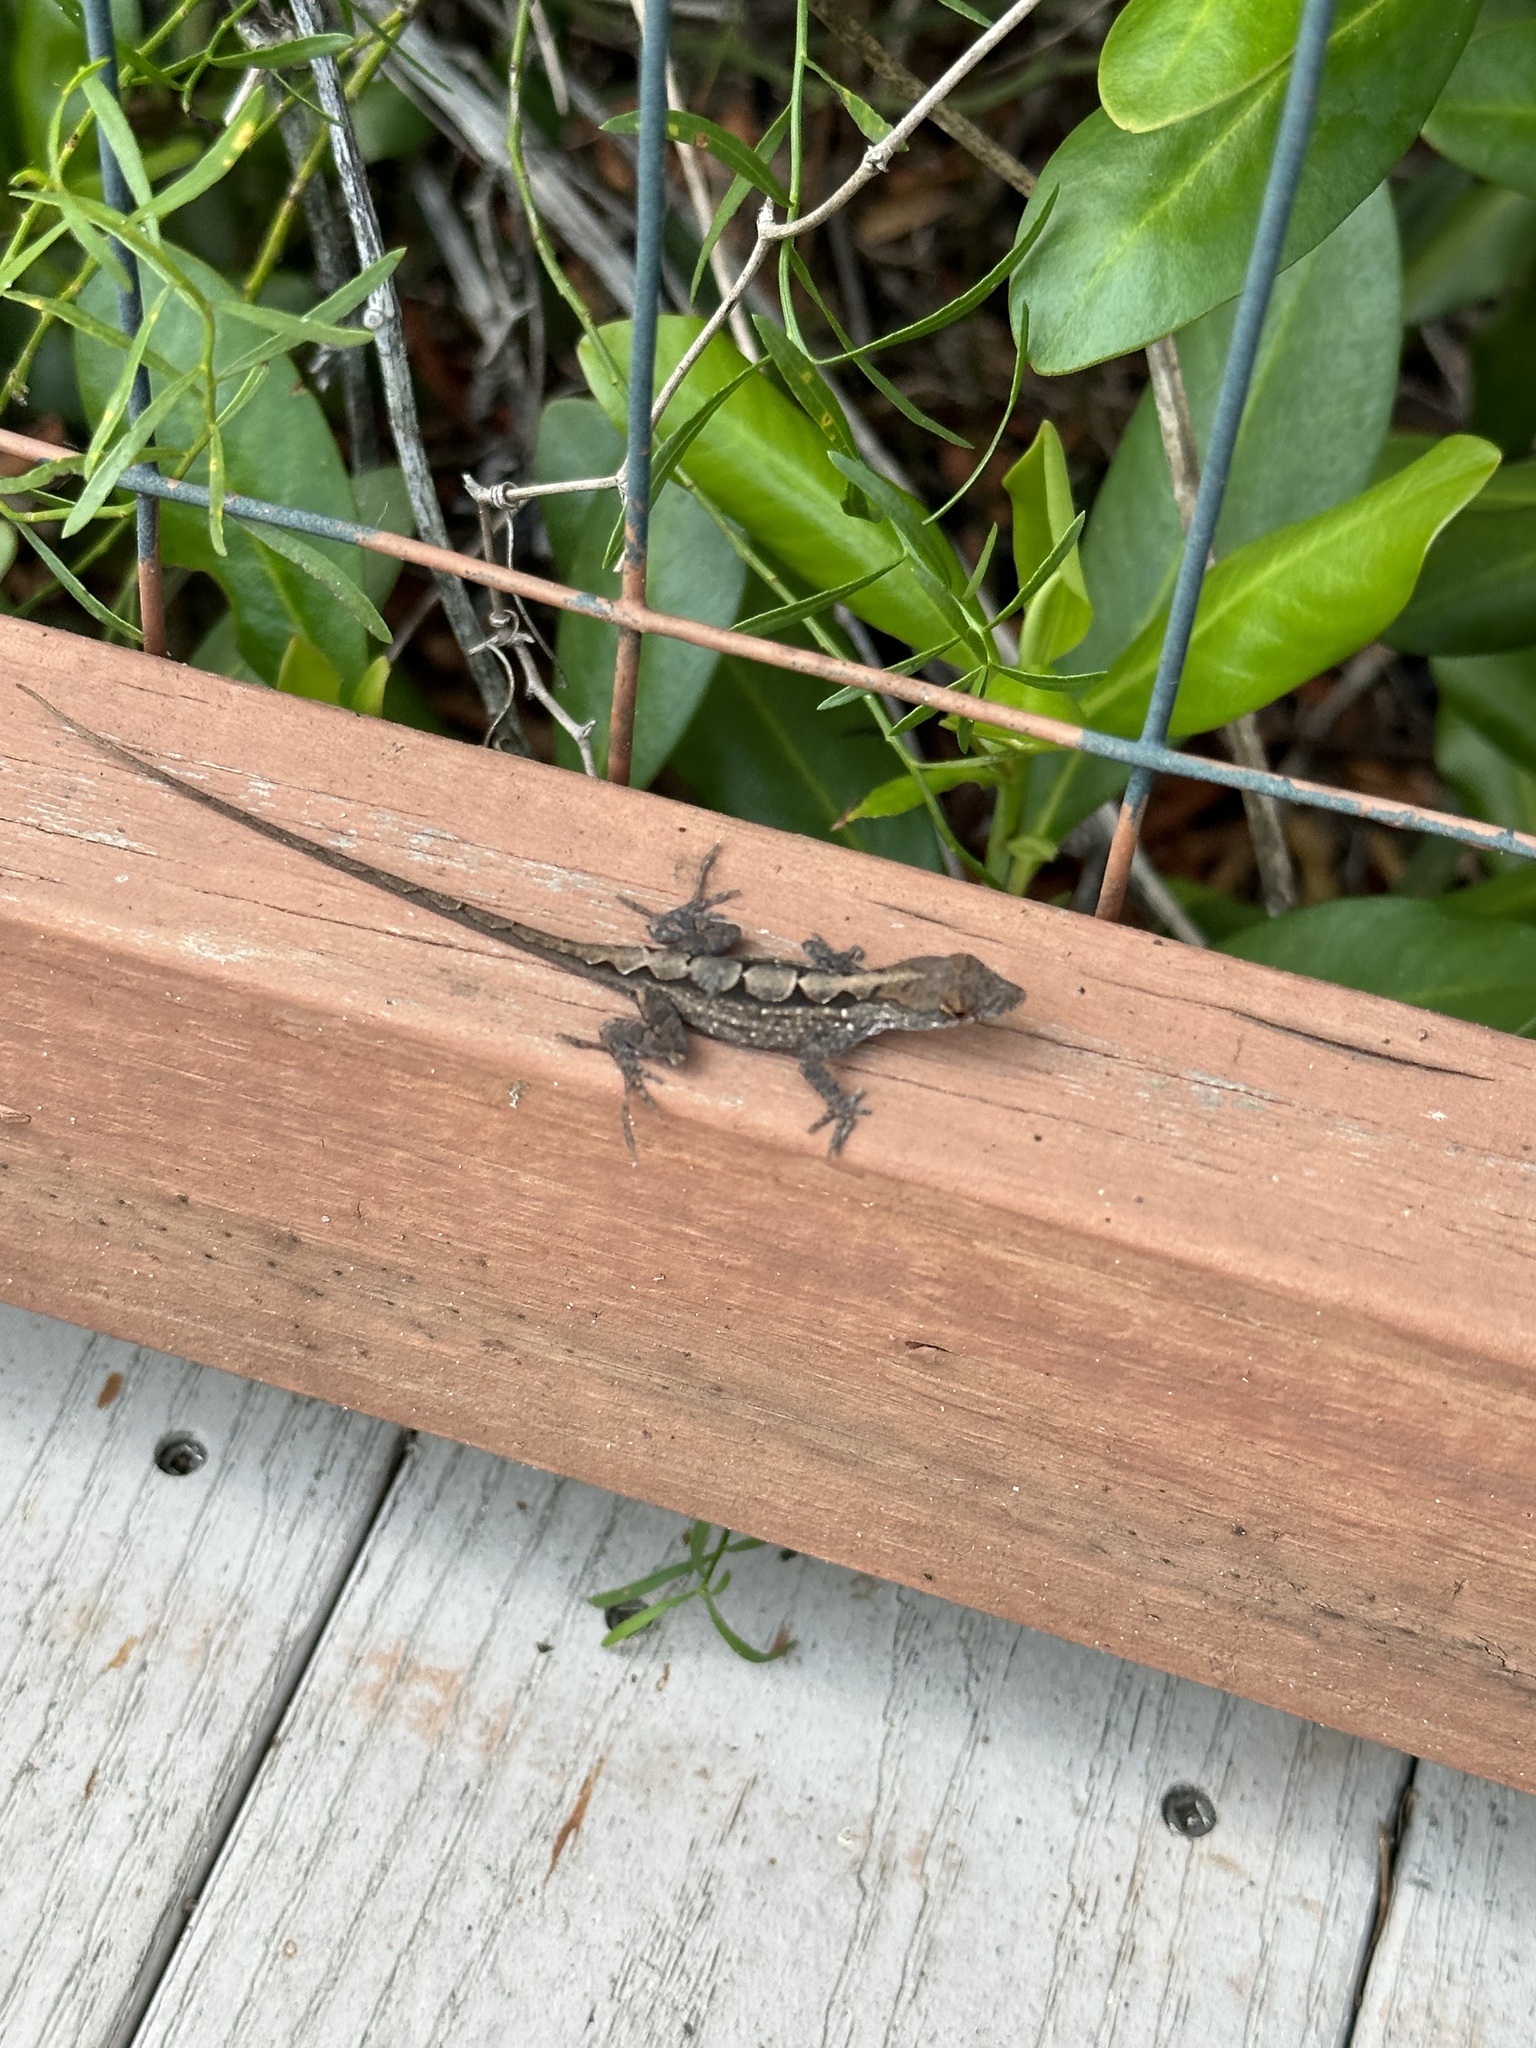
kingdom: Animalia
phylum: Chordata
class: Squamata
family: Dactyloidae
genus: Anolis
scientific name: Anolis sagrei
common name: Brown anole
